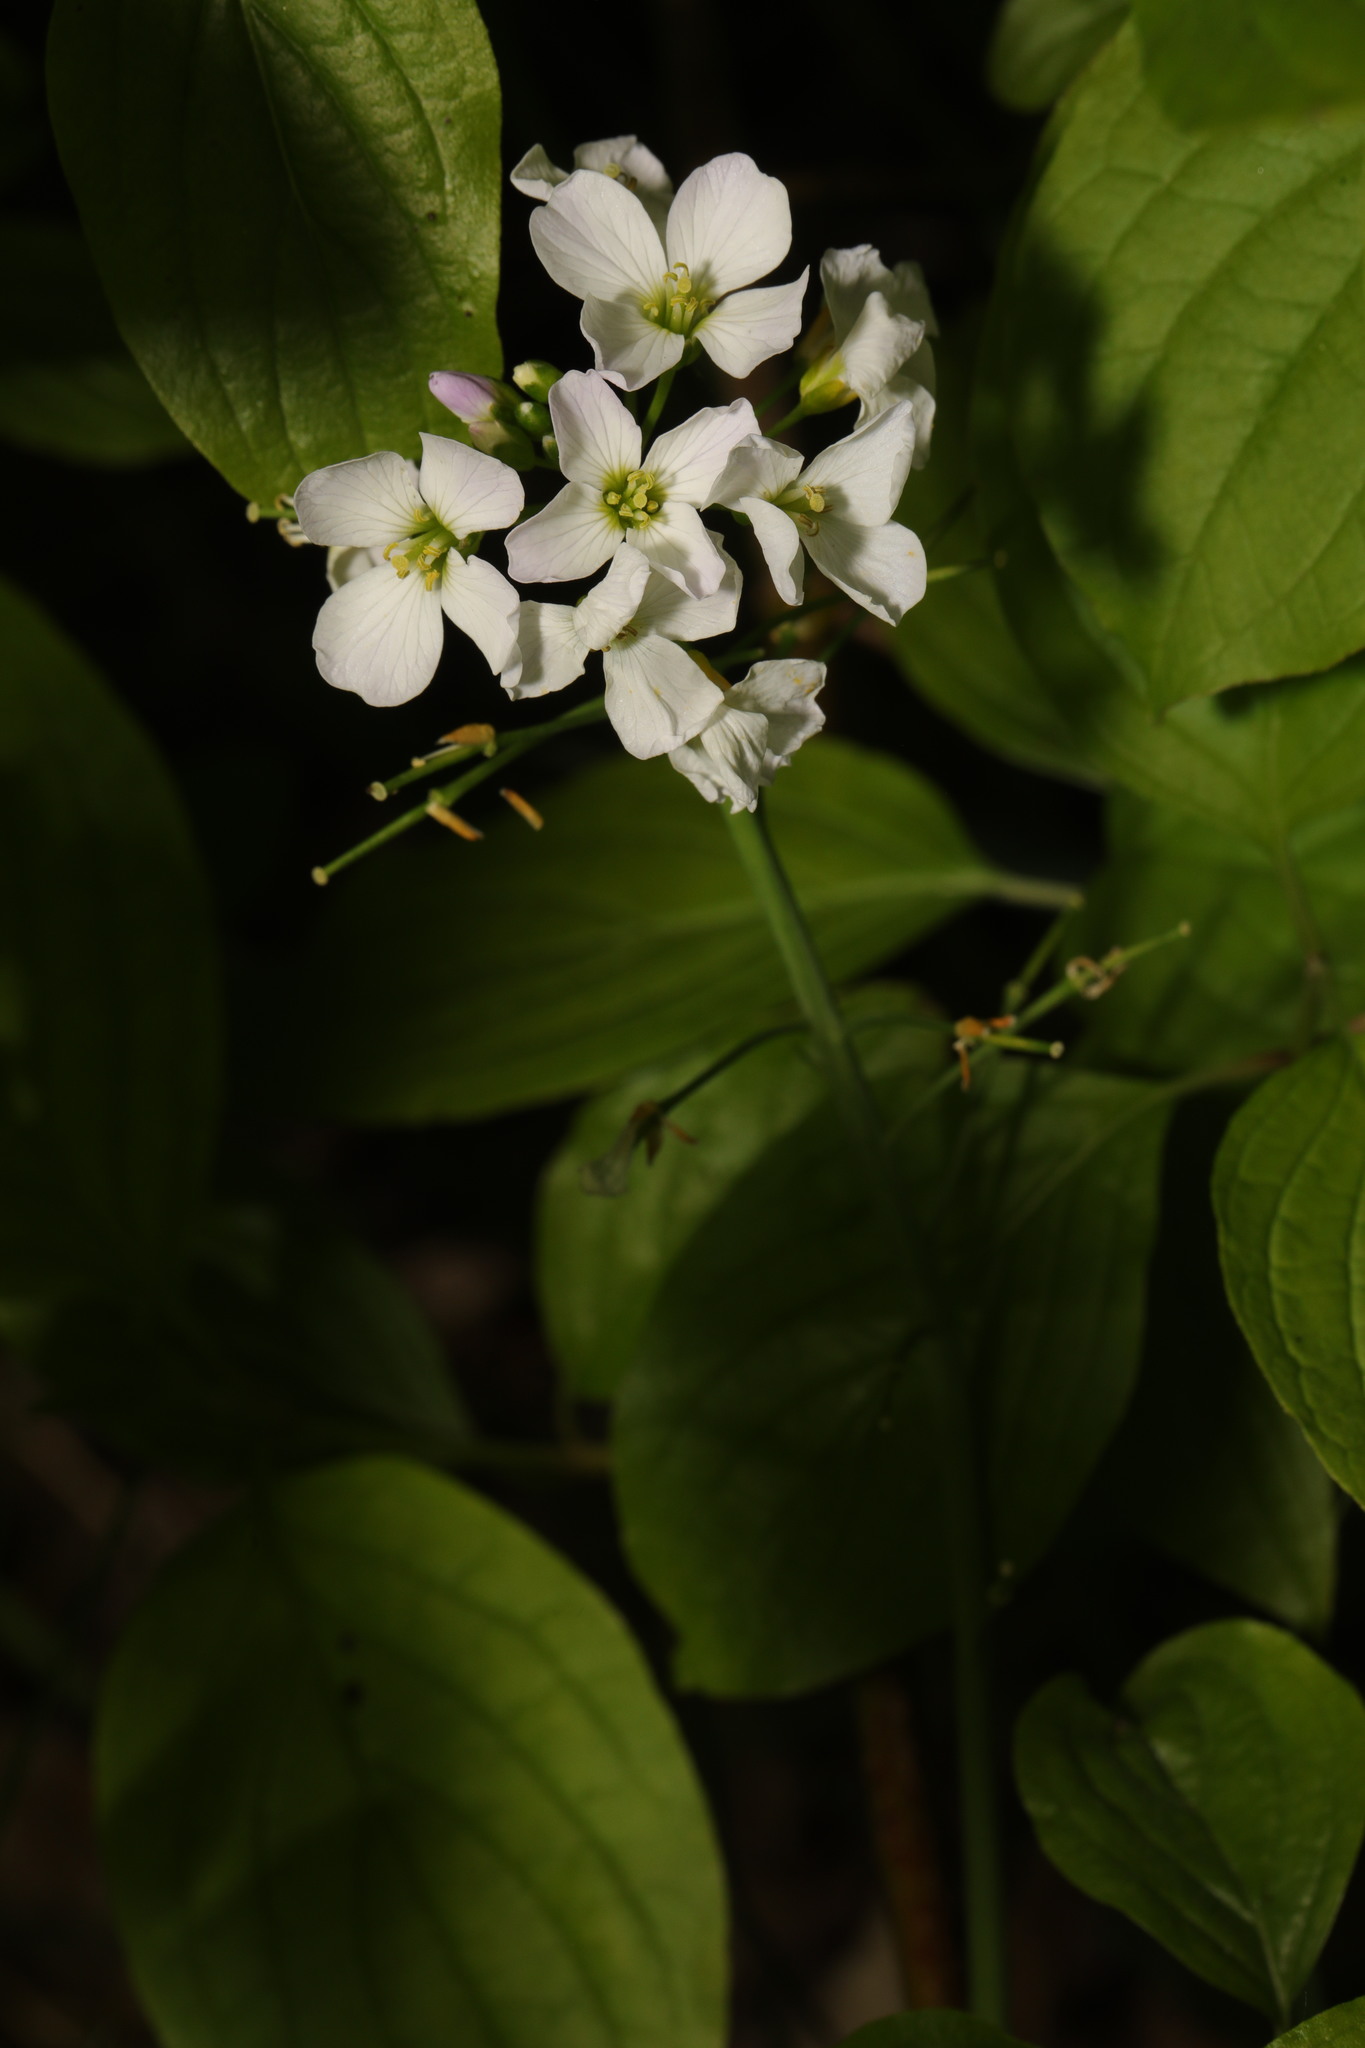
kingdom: Plantae
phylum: Tracheophyta
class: Magnoliopsida
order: Brassicales
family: Brassicaceae
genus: Cardamine
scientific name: Cardamine pratensis
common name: Cuckoo flower
